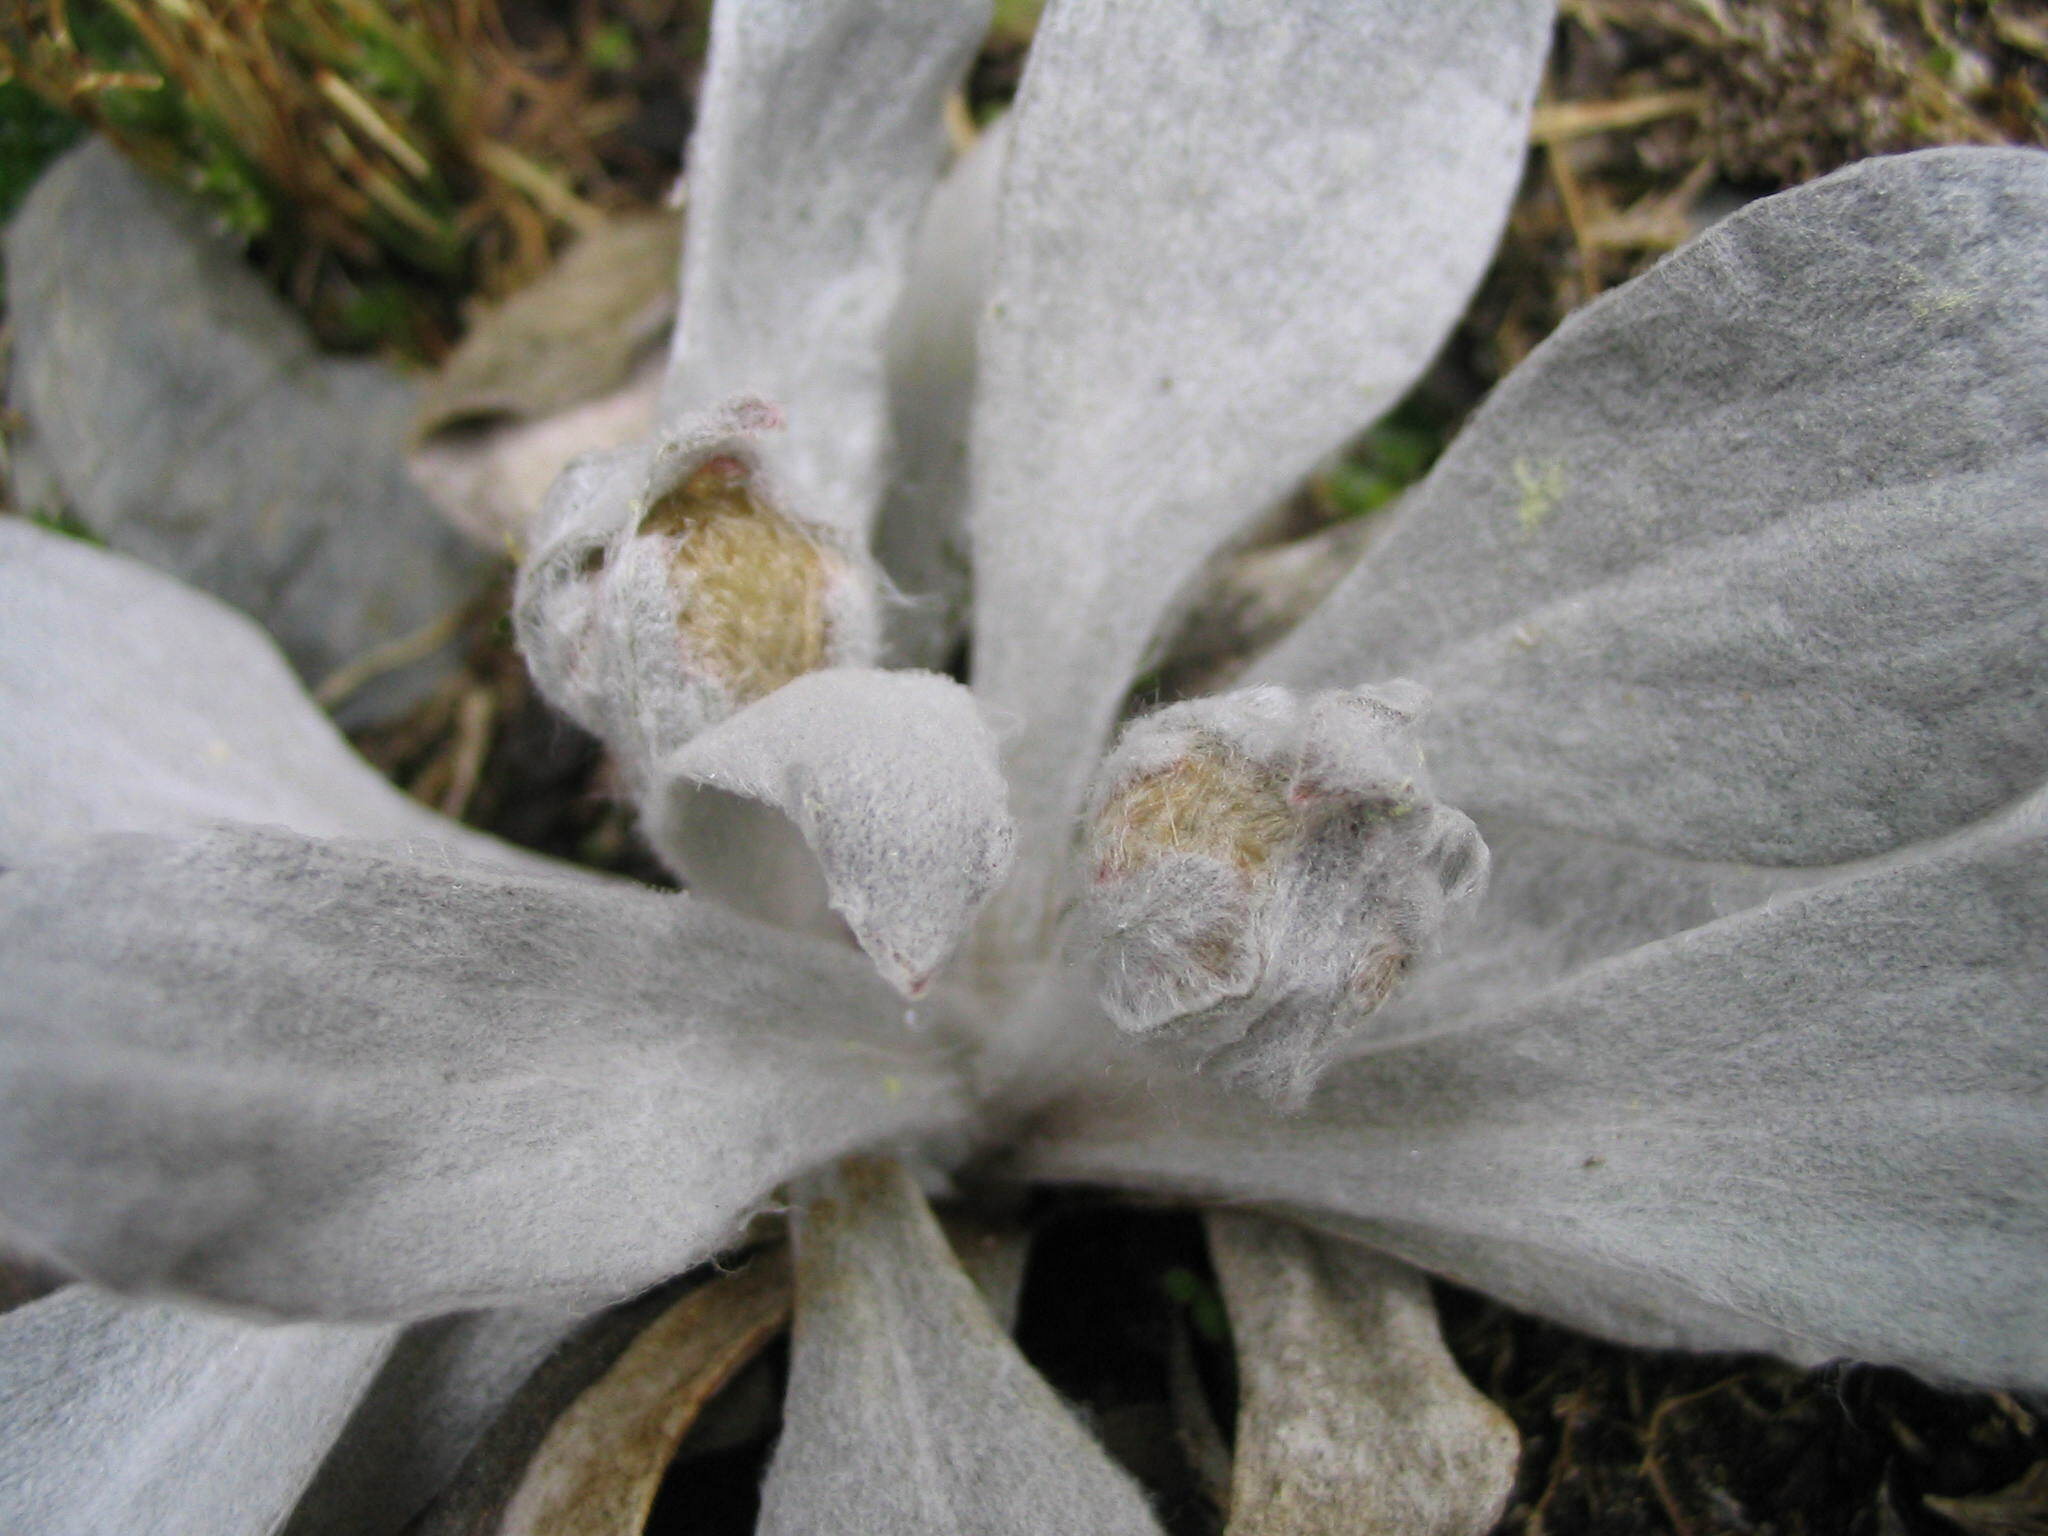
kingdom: Plantae
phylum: Tracheophyta
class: Magnoliopsida
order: Asterales
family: Asteraceae
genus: Craspedia
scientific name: Craspedia
